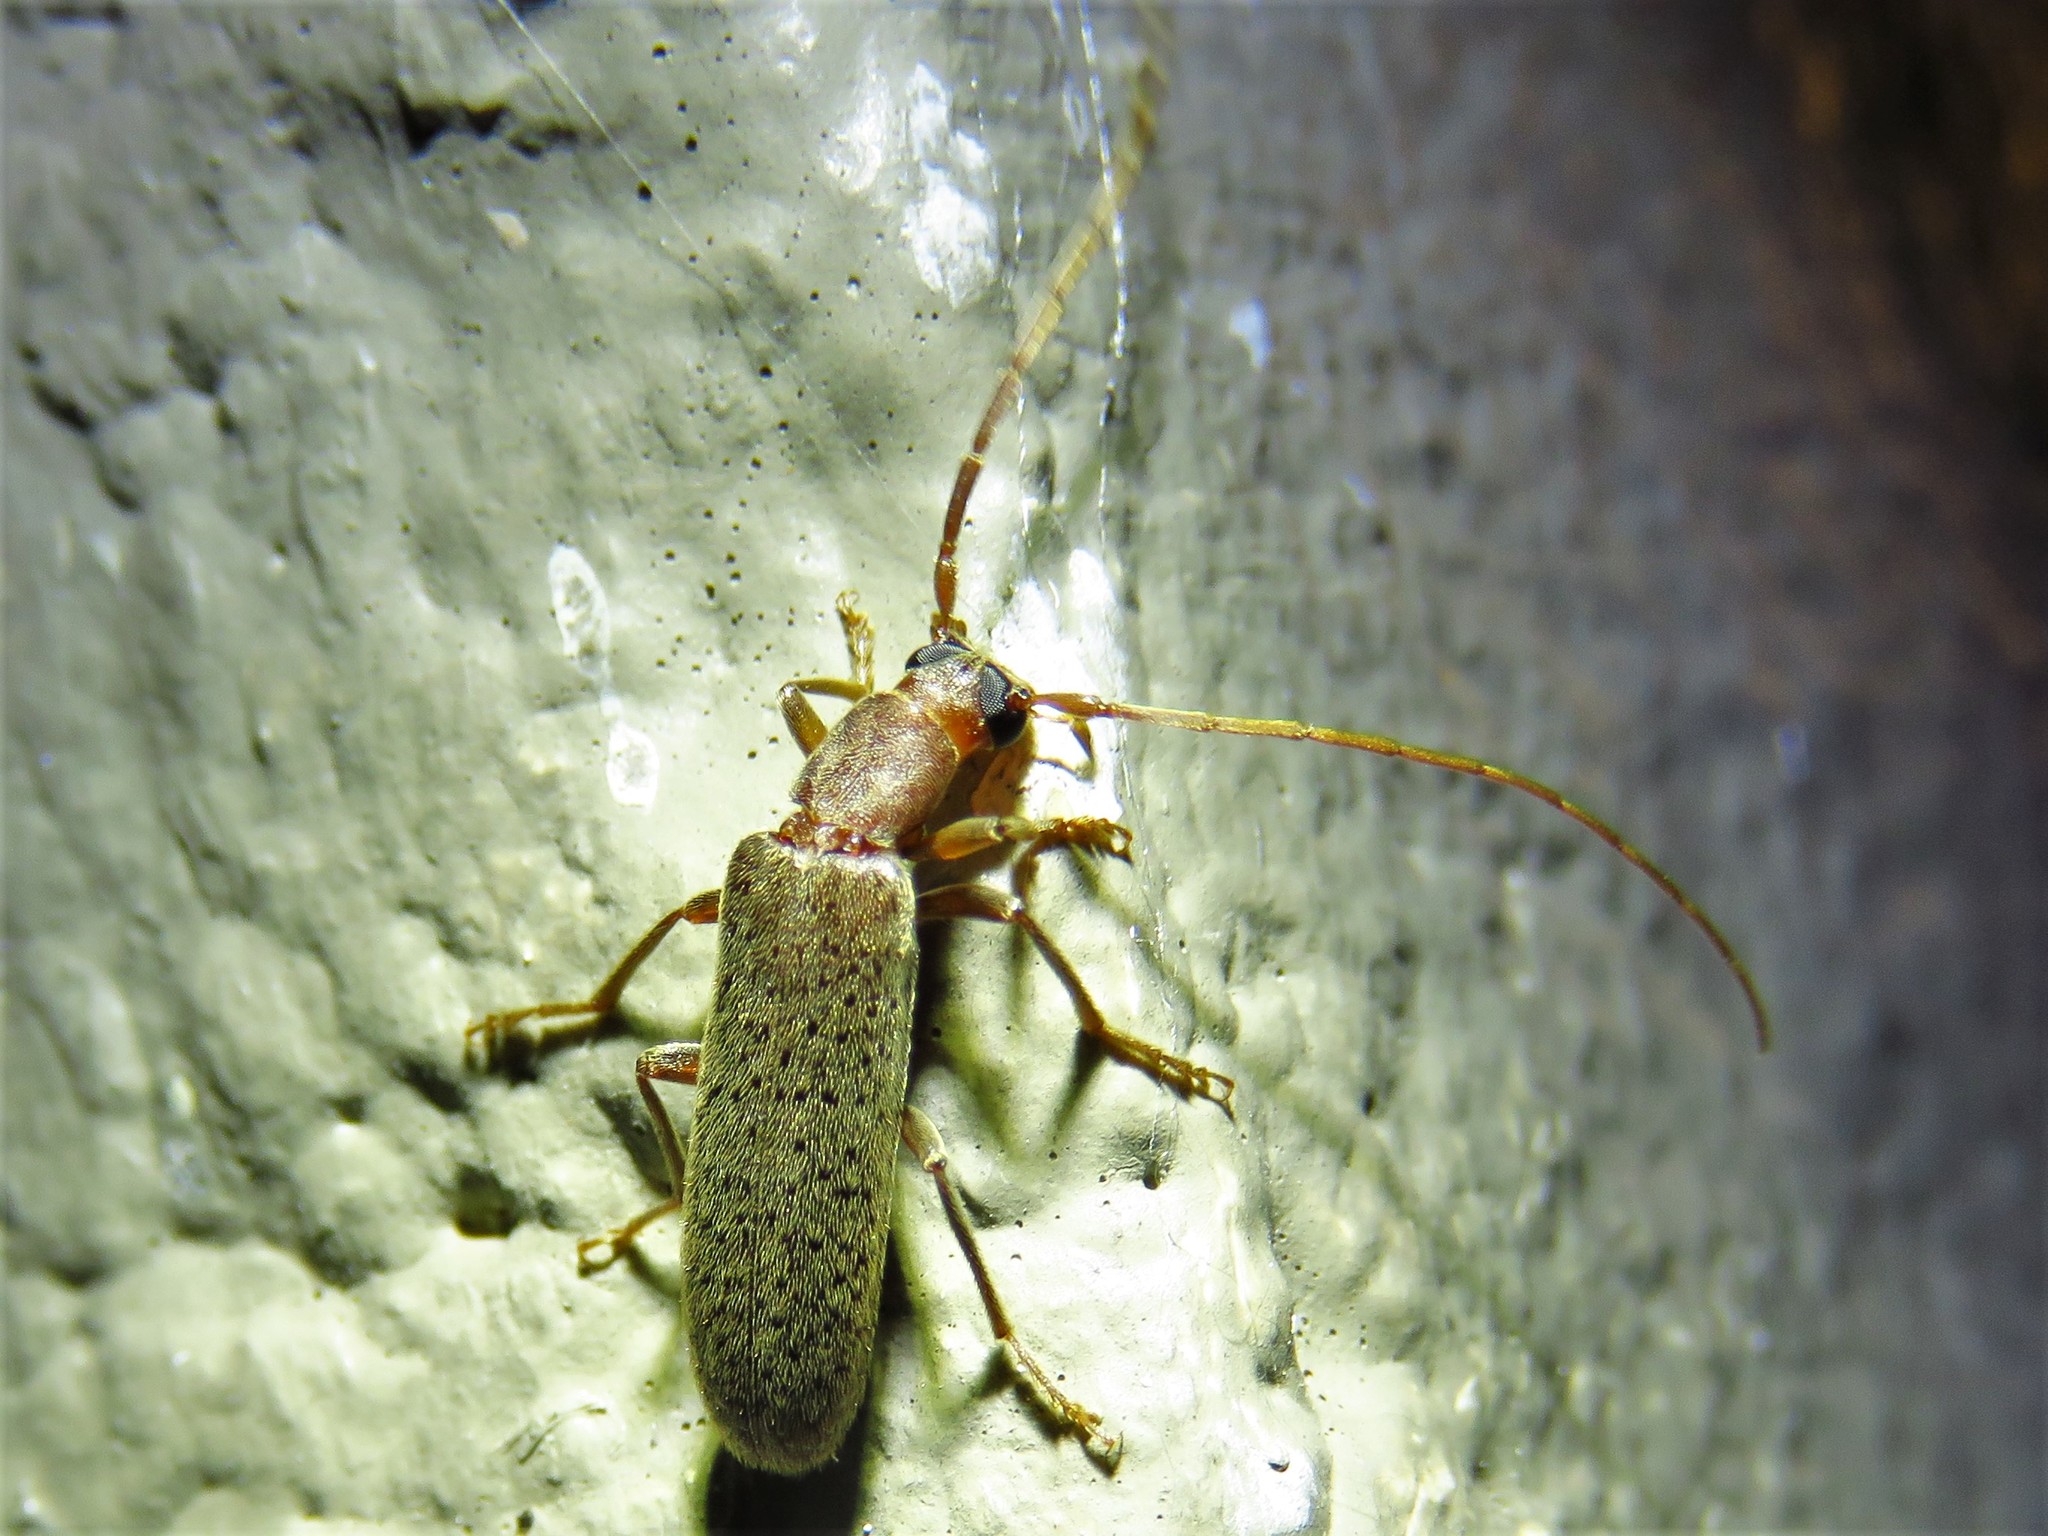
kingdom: Animalia
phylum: Arthropoda
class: Insecta
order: Coleoptera
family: Oedemeridae
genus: Sparedrus
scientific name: Sparedrus aspersus
